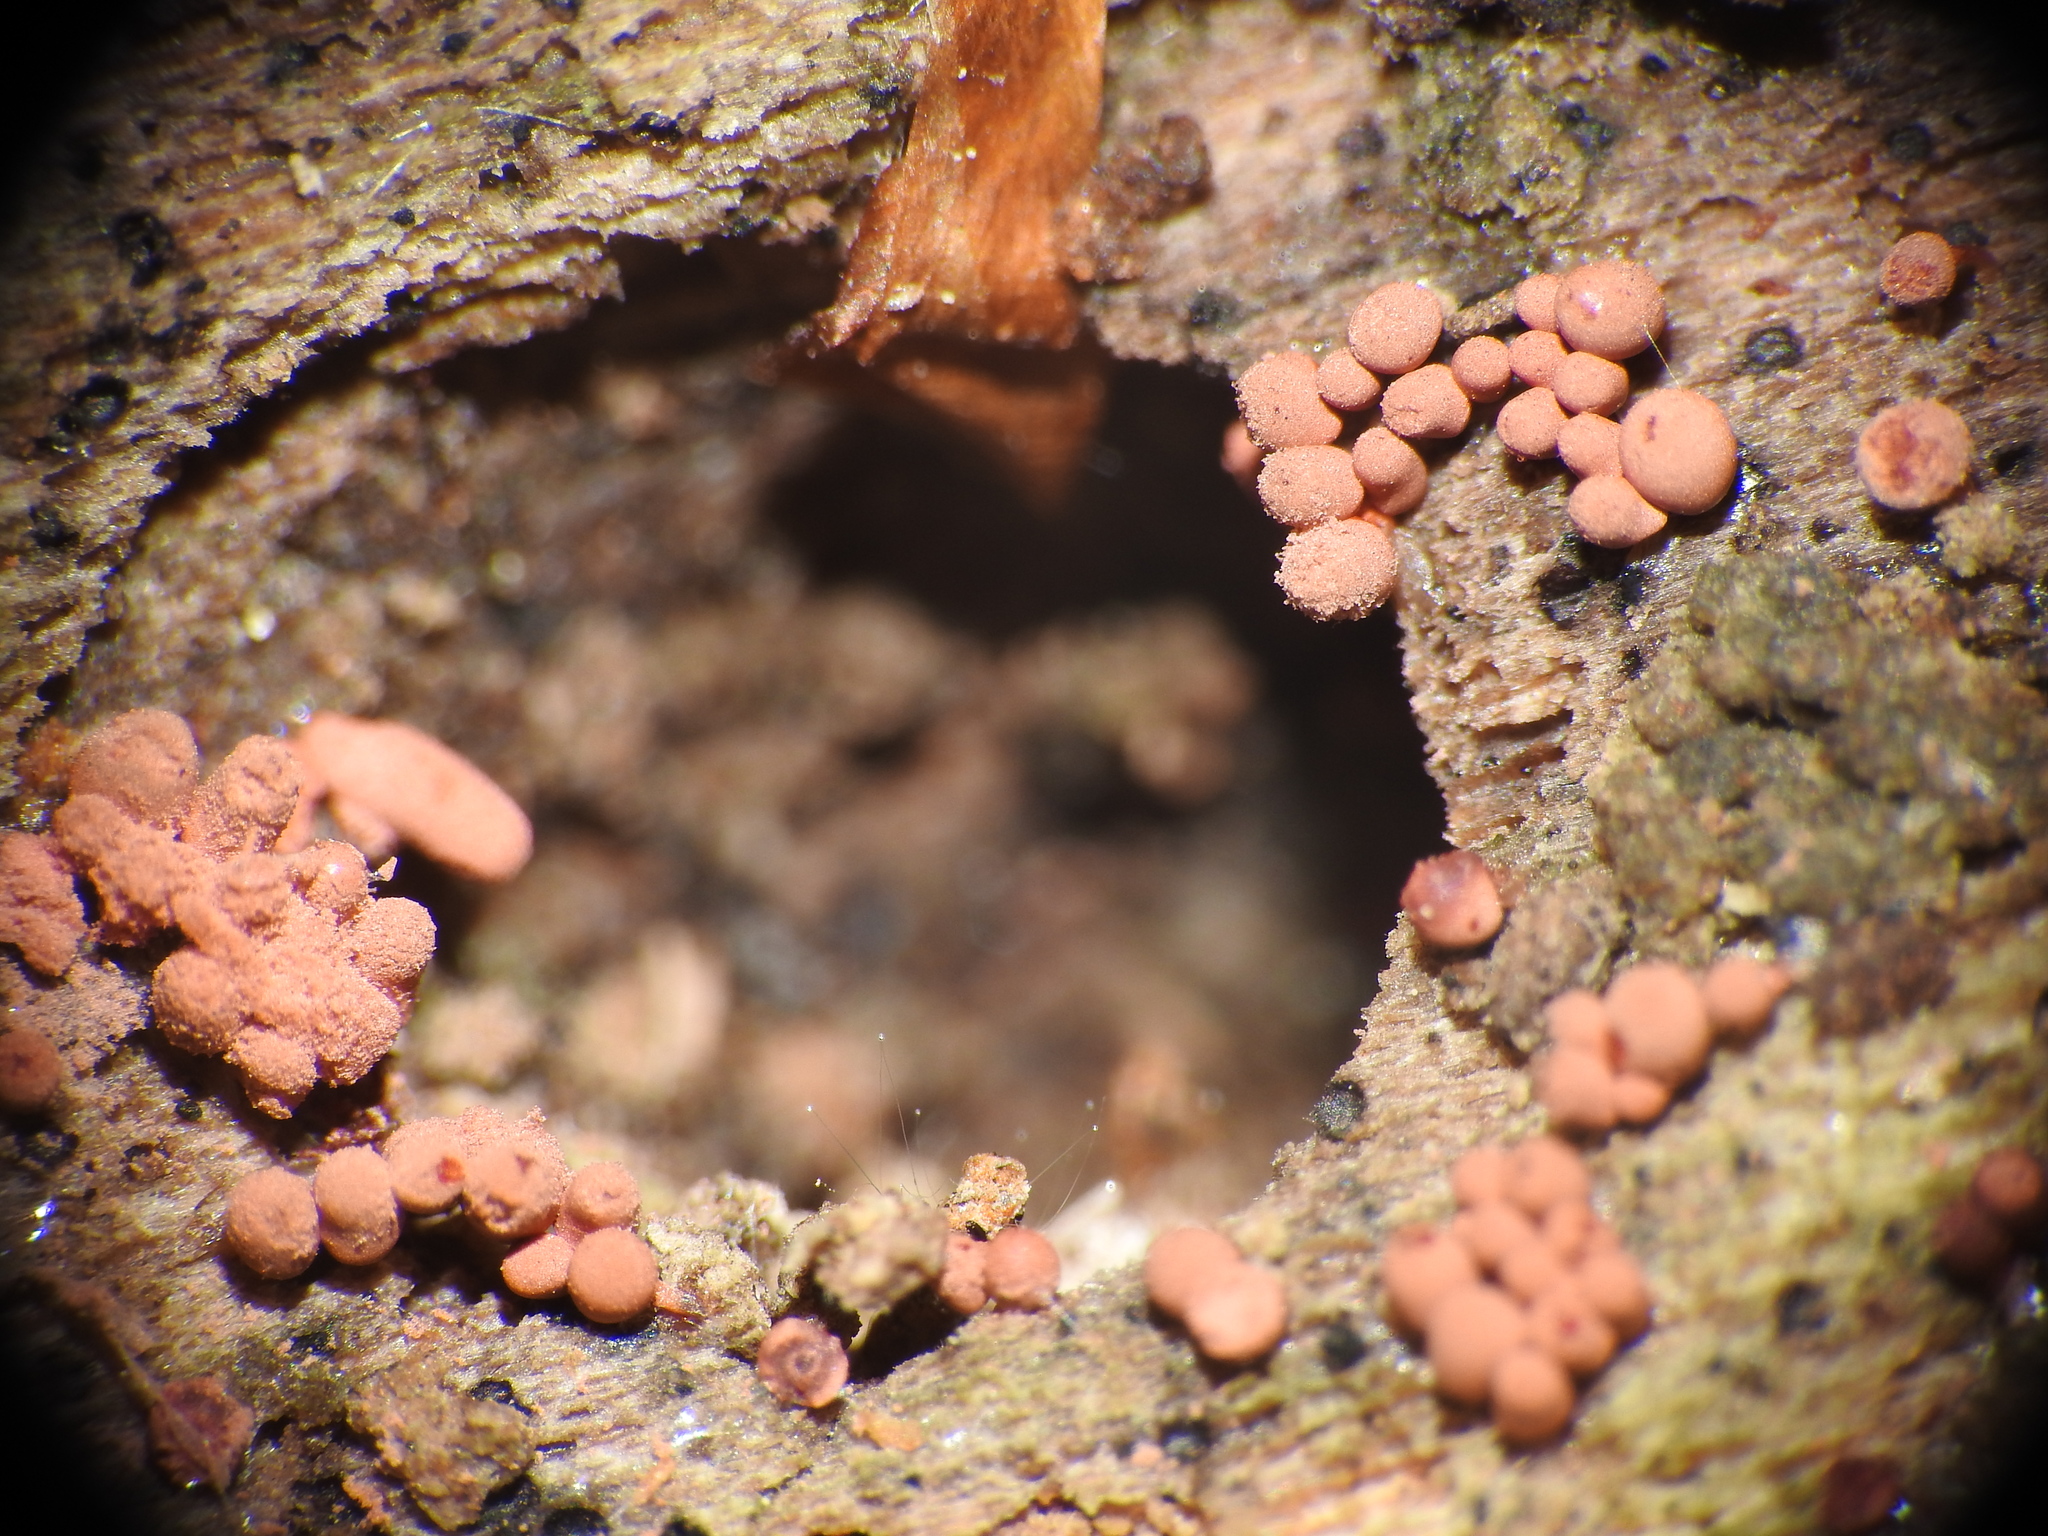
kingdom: Protozoa
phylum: Mycetozoa
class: Myxomycetes
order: Trichiales
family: Arcyriaceae
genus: Arcyria
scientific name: Arcyria denudata
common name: Carnival candy slime mold
